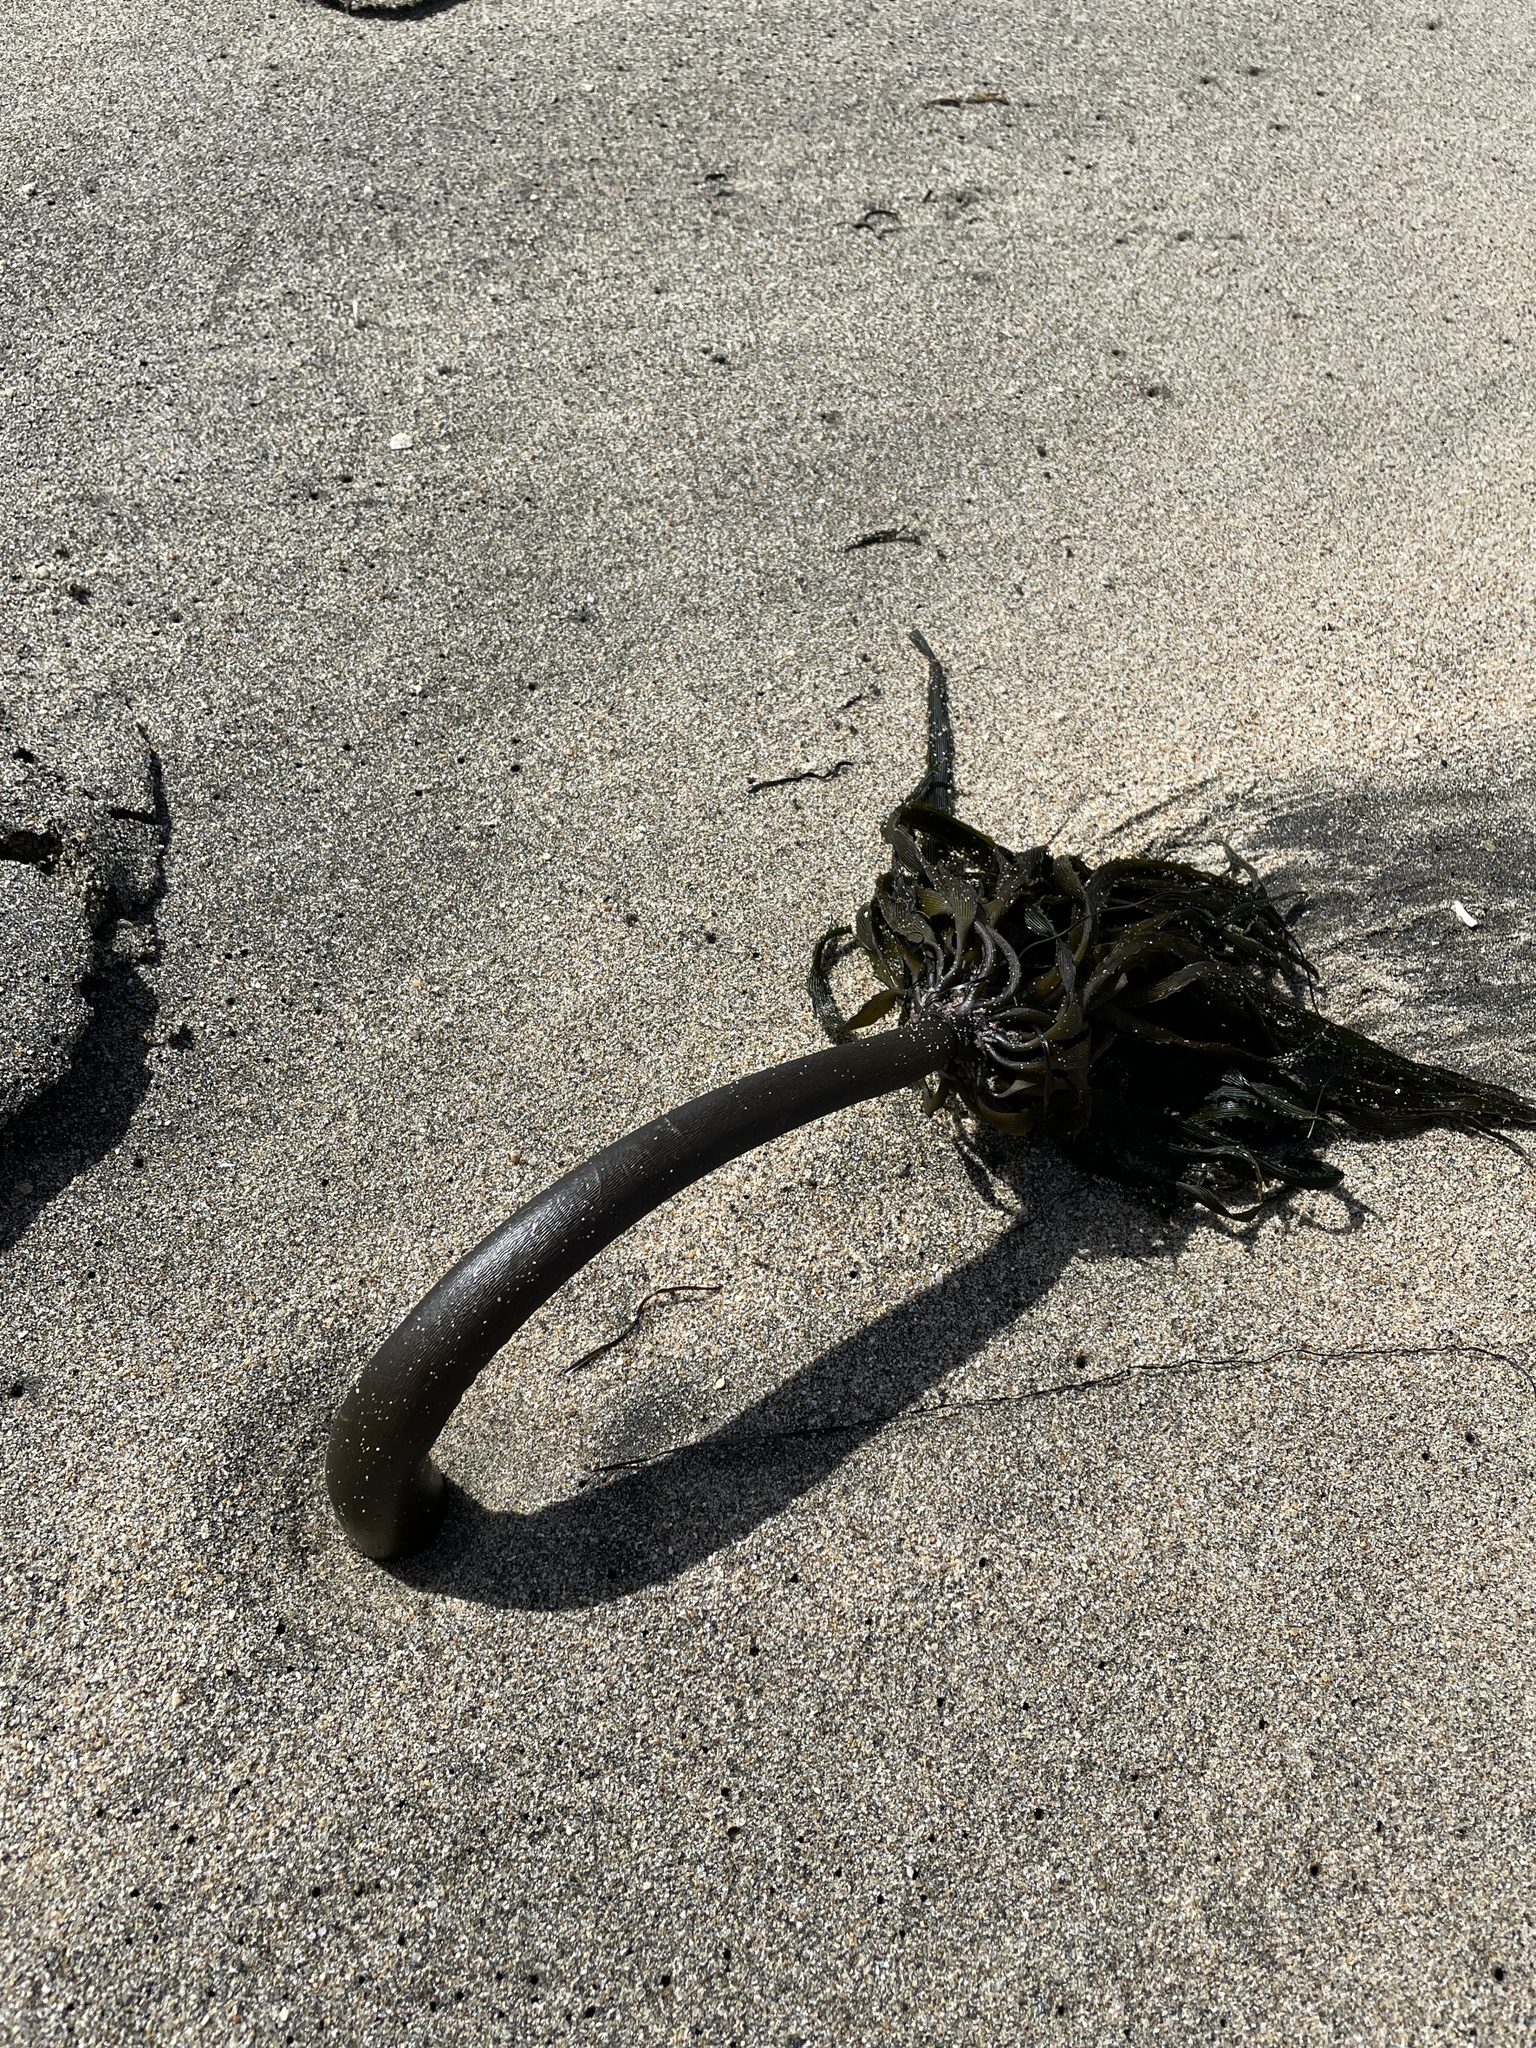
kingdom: Chromista
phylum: Ochrophyta
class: Phaeophyceae
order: Laminariales
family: Laminariaceae
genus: Postelsia
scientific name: Postelsia palmiformis
